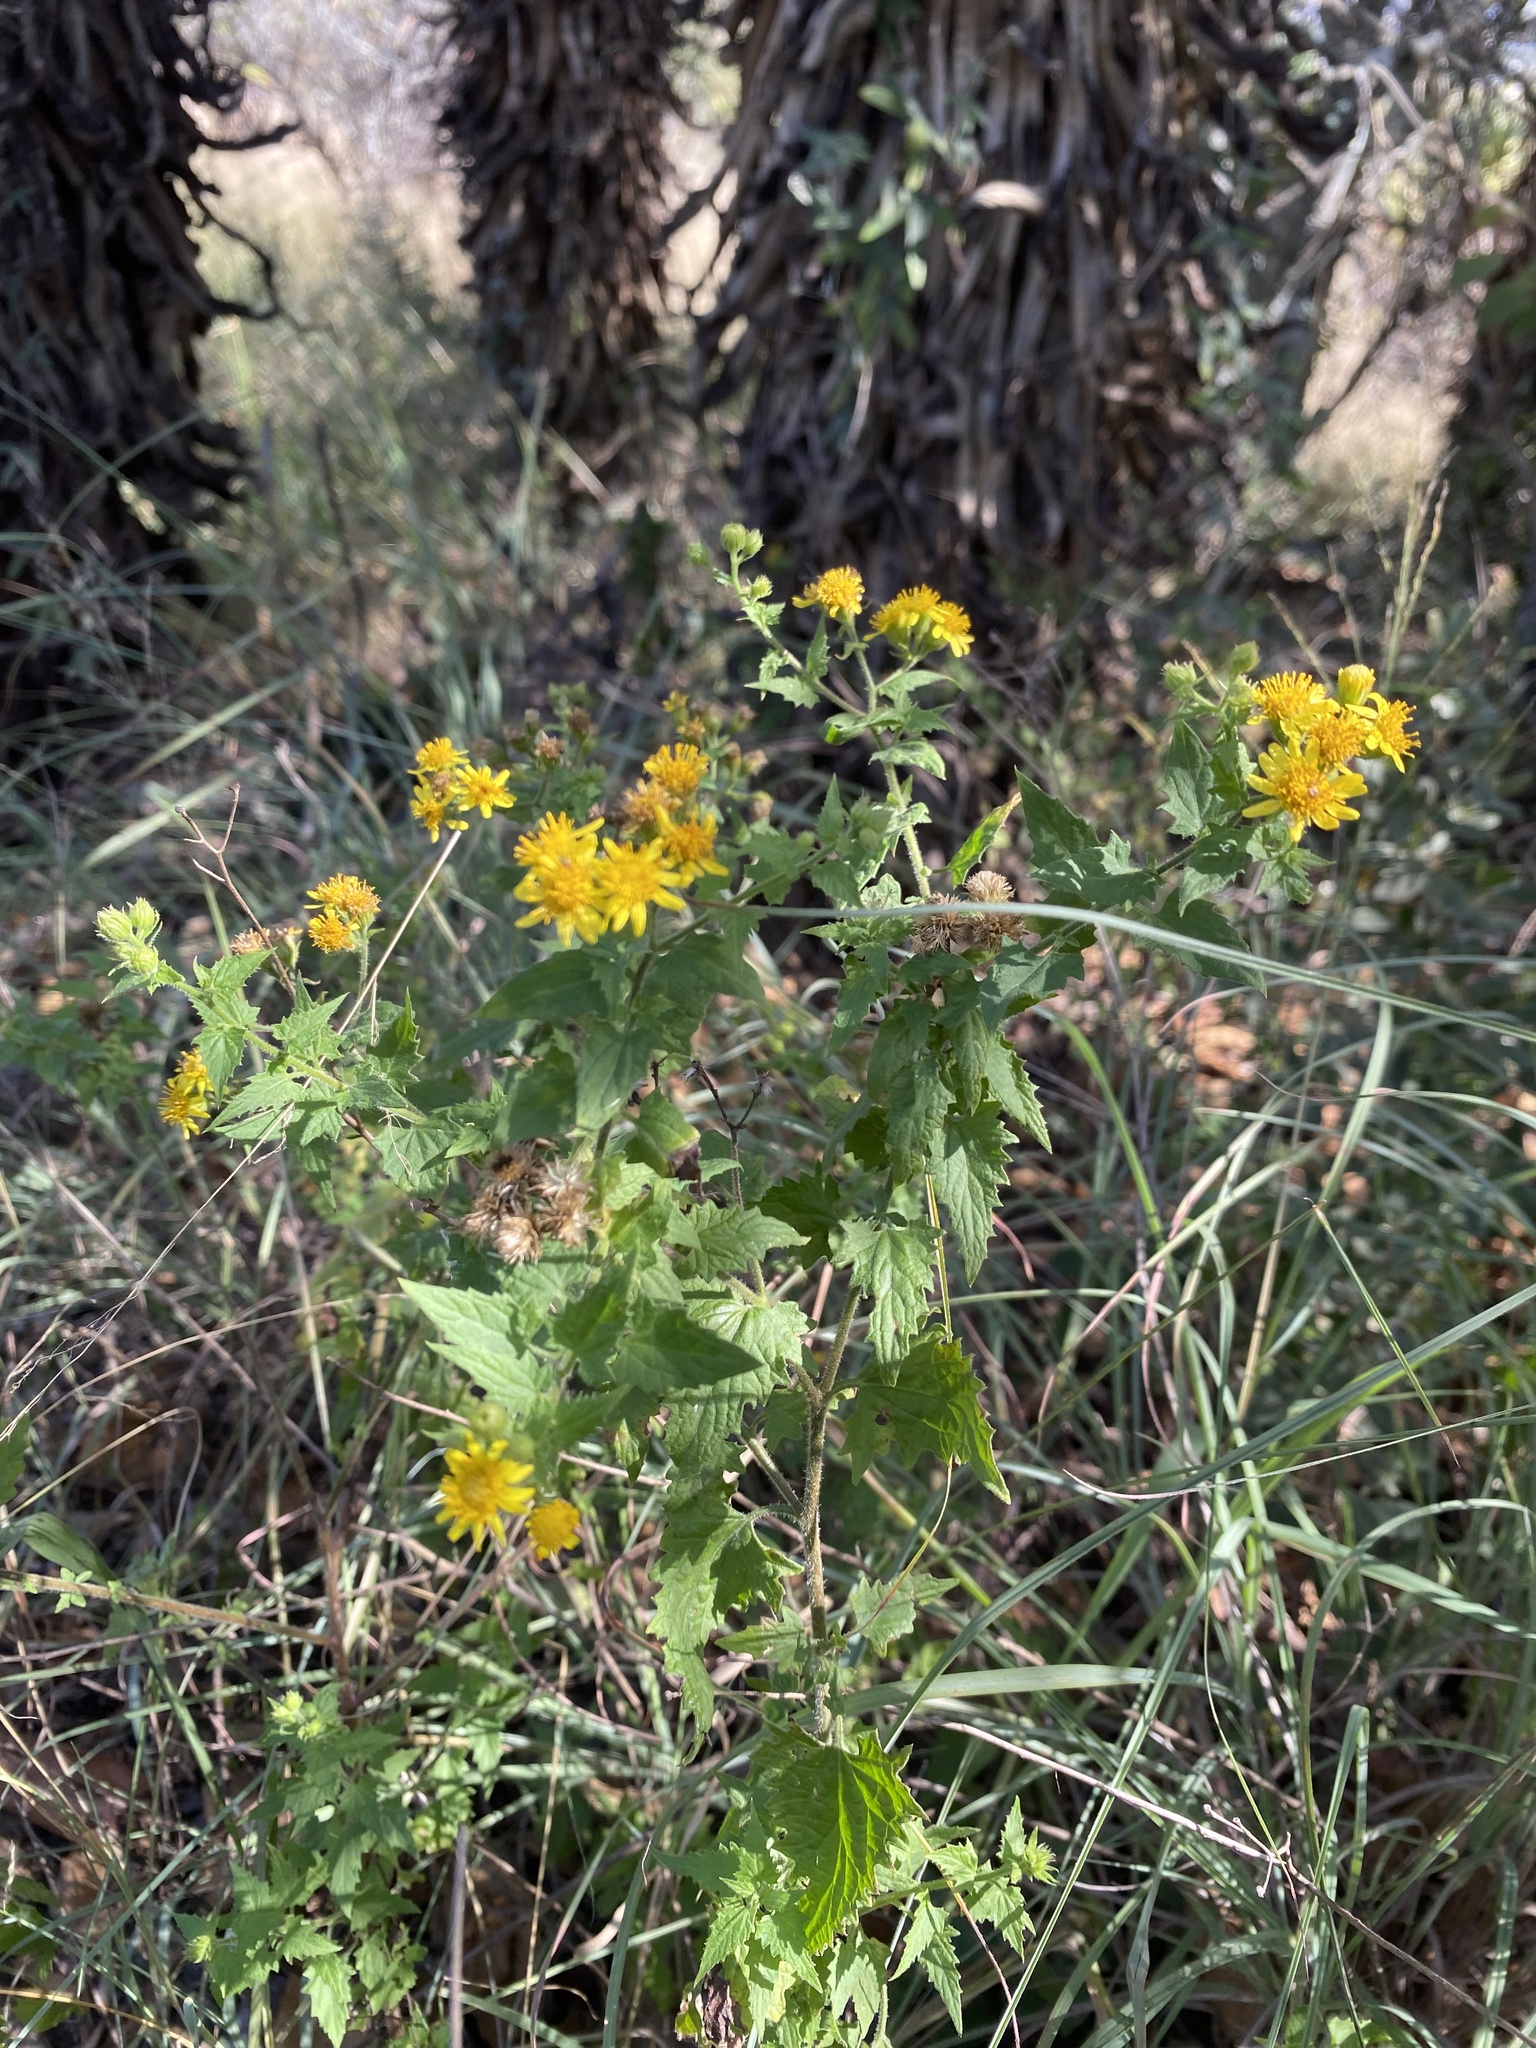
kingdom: Plantae
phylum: Tracheophyta
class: Magnoliopsida
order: Asterales
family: Asteraceae
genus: Anisopappus
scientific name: Anisopappus schinzii
